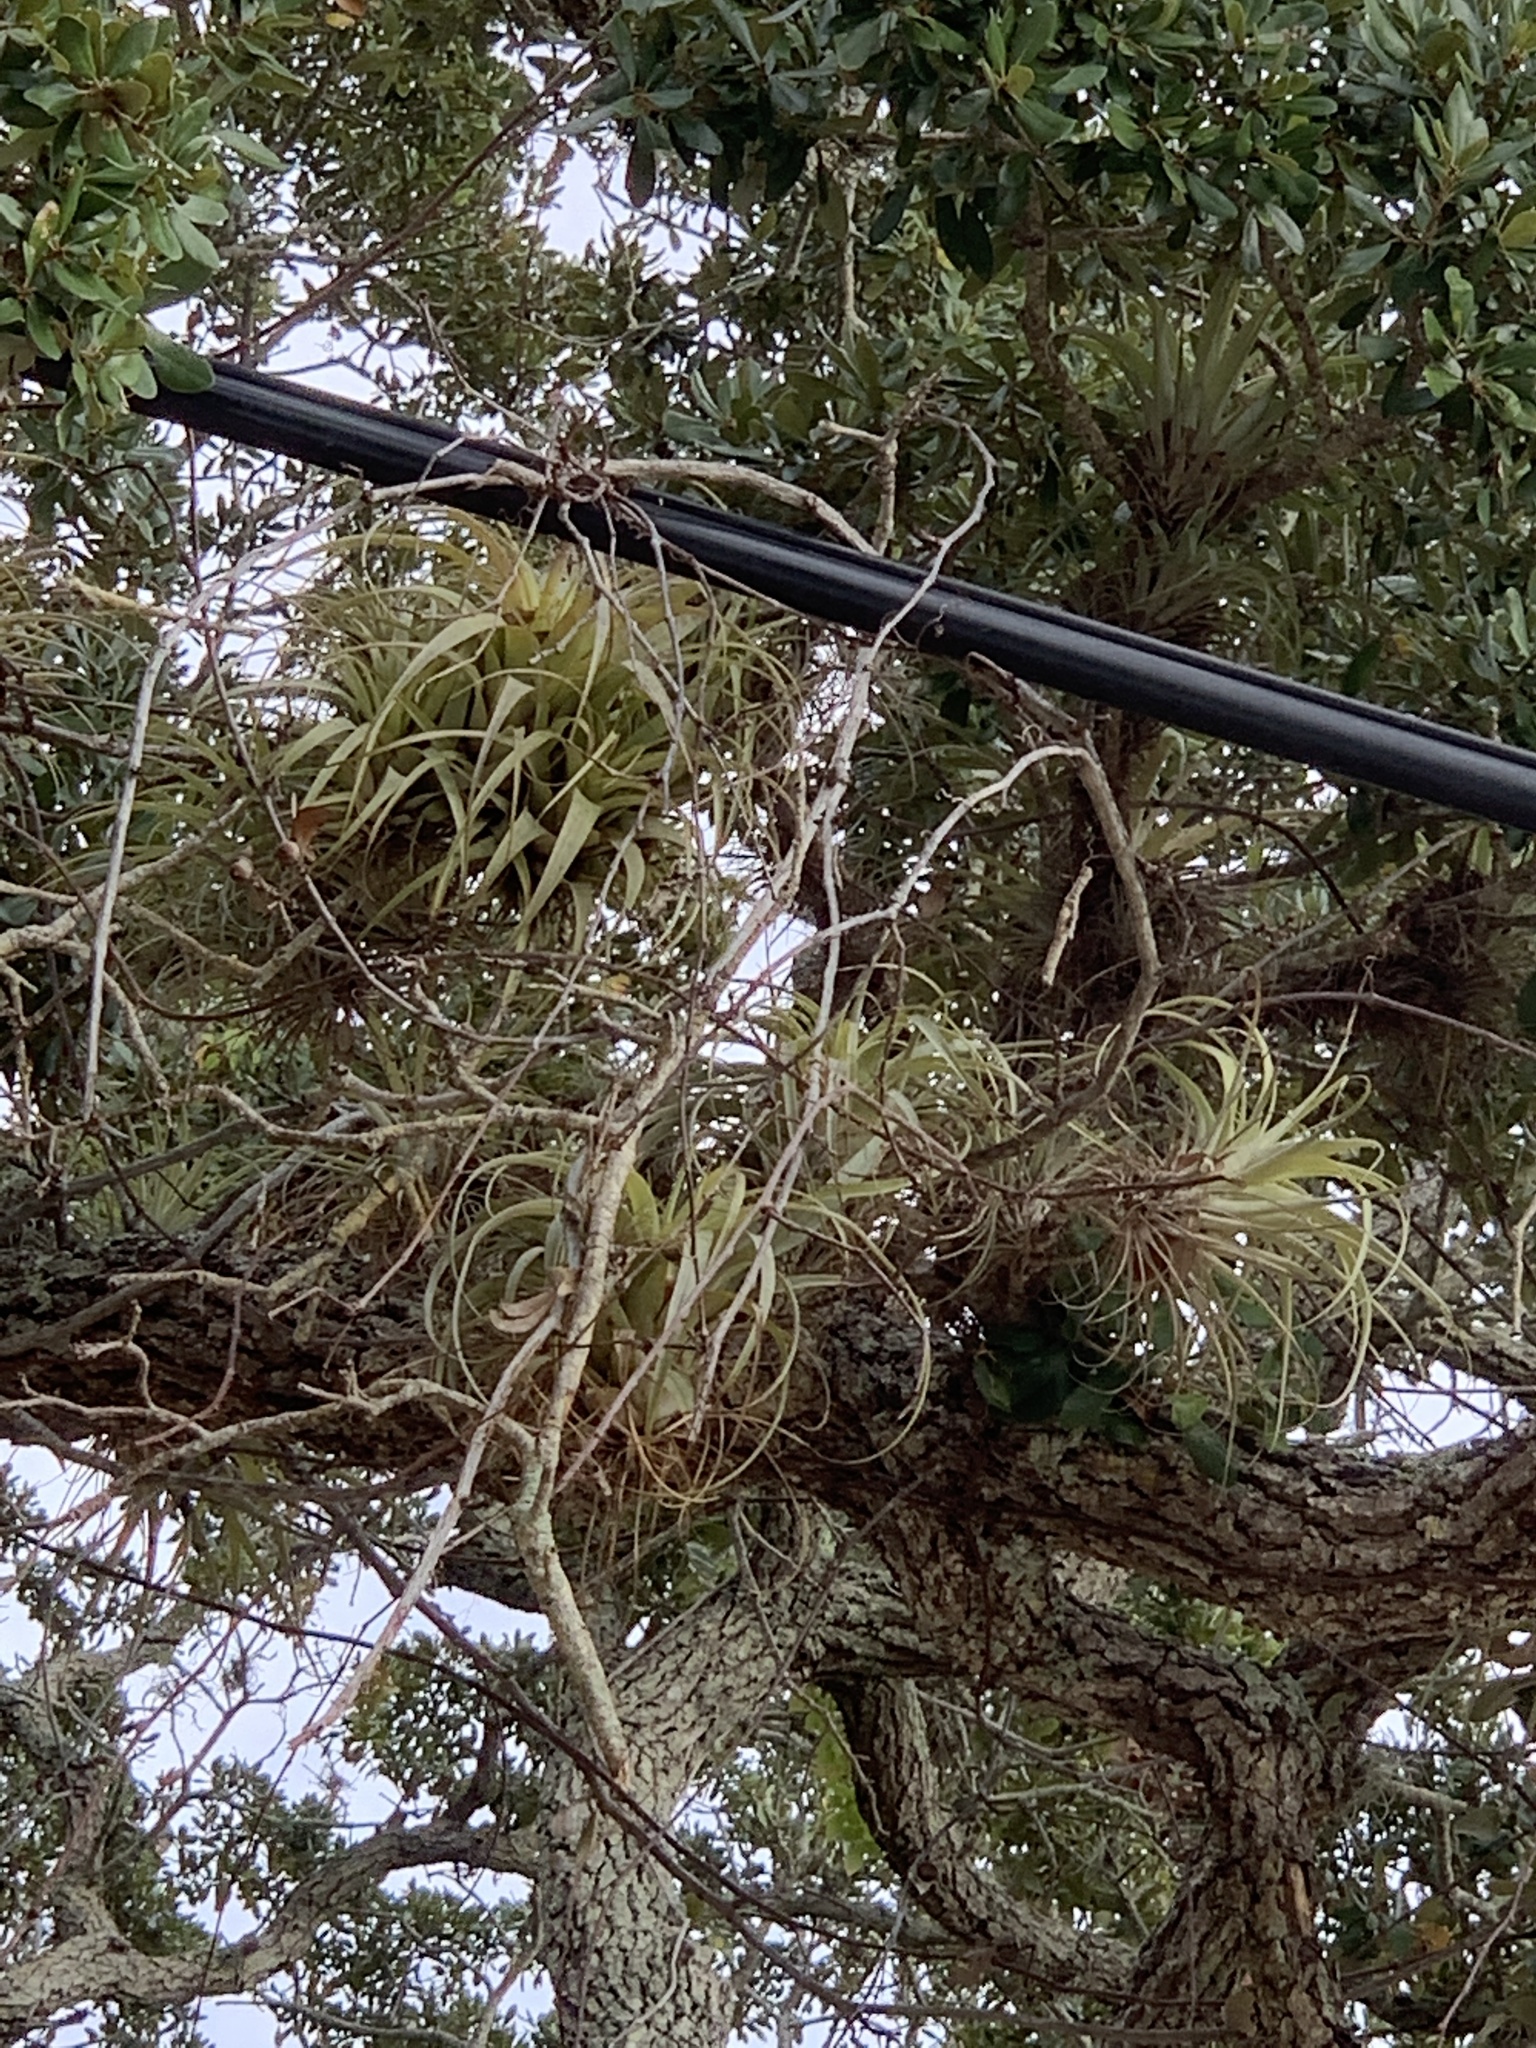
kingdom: Plantae
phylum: Tracheophyta
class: Liliopsida
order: Poales
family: Bromeliaceae
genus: Tillandsia
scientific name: Tillandsia utriculata
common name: Wild pine
